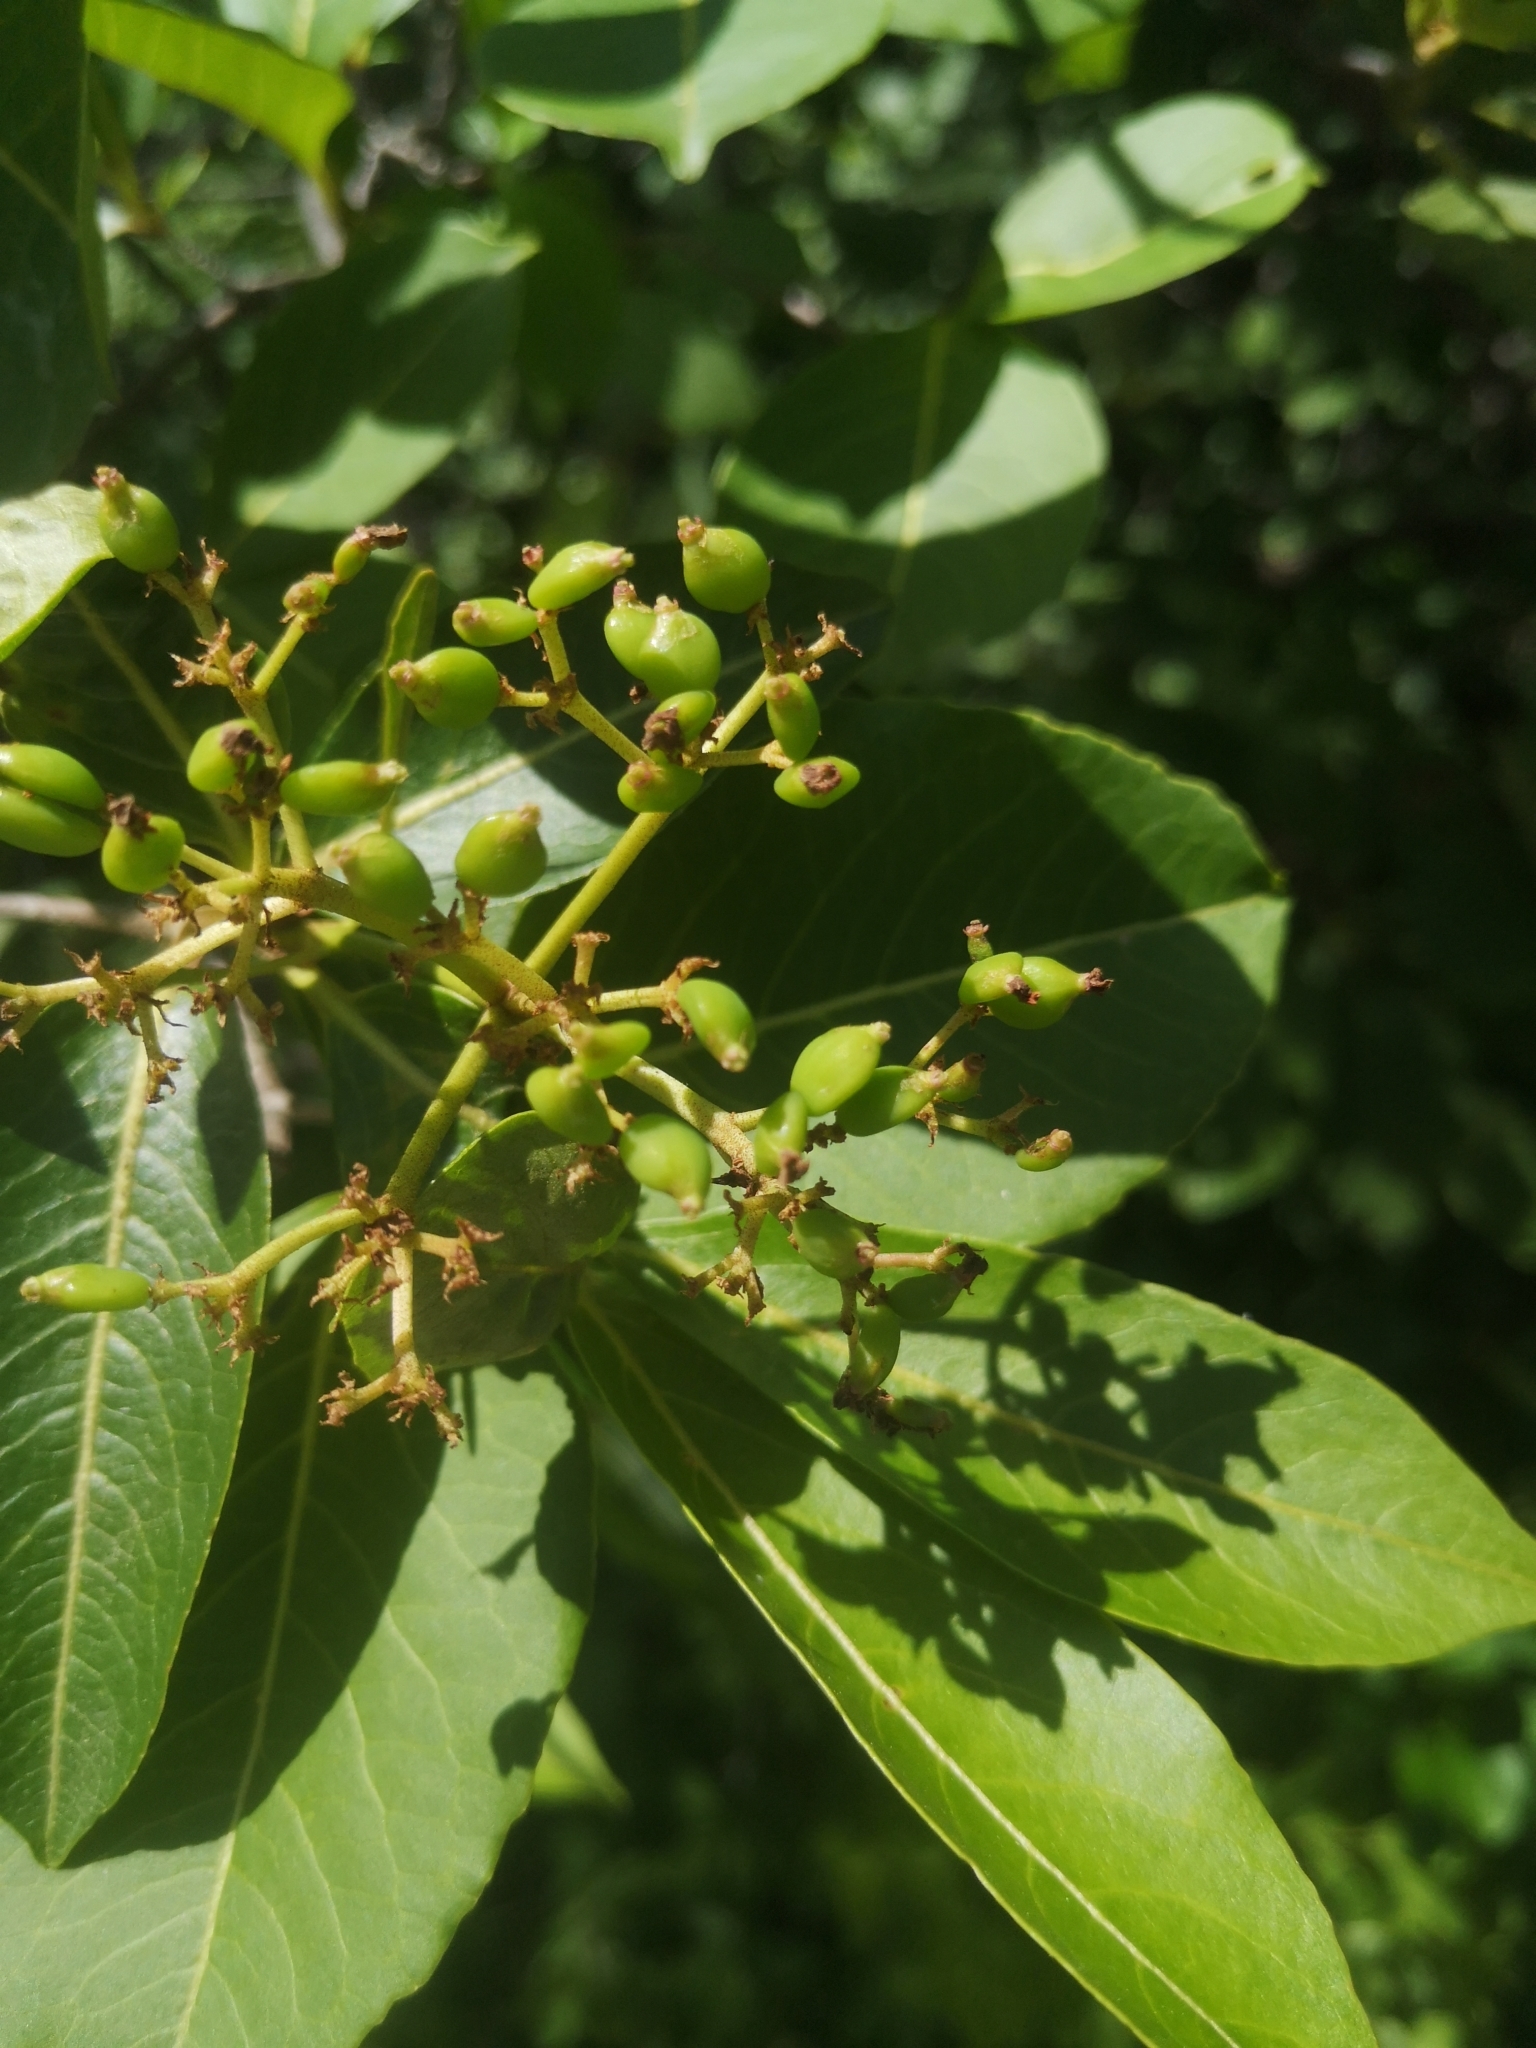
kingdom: Plantae
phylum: Tracheophyta
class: Magnoliopsida
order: Dipsacales
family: Viburnaceae
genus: Viburnum
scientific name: Viburnum cassinoides
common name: Swamp haw
